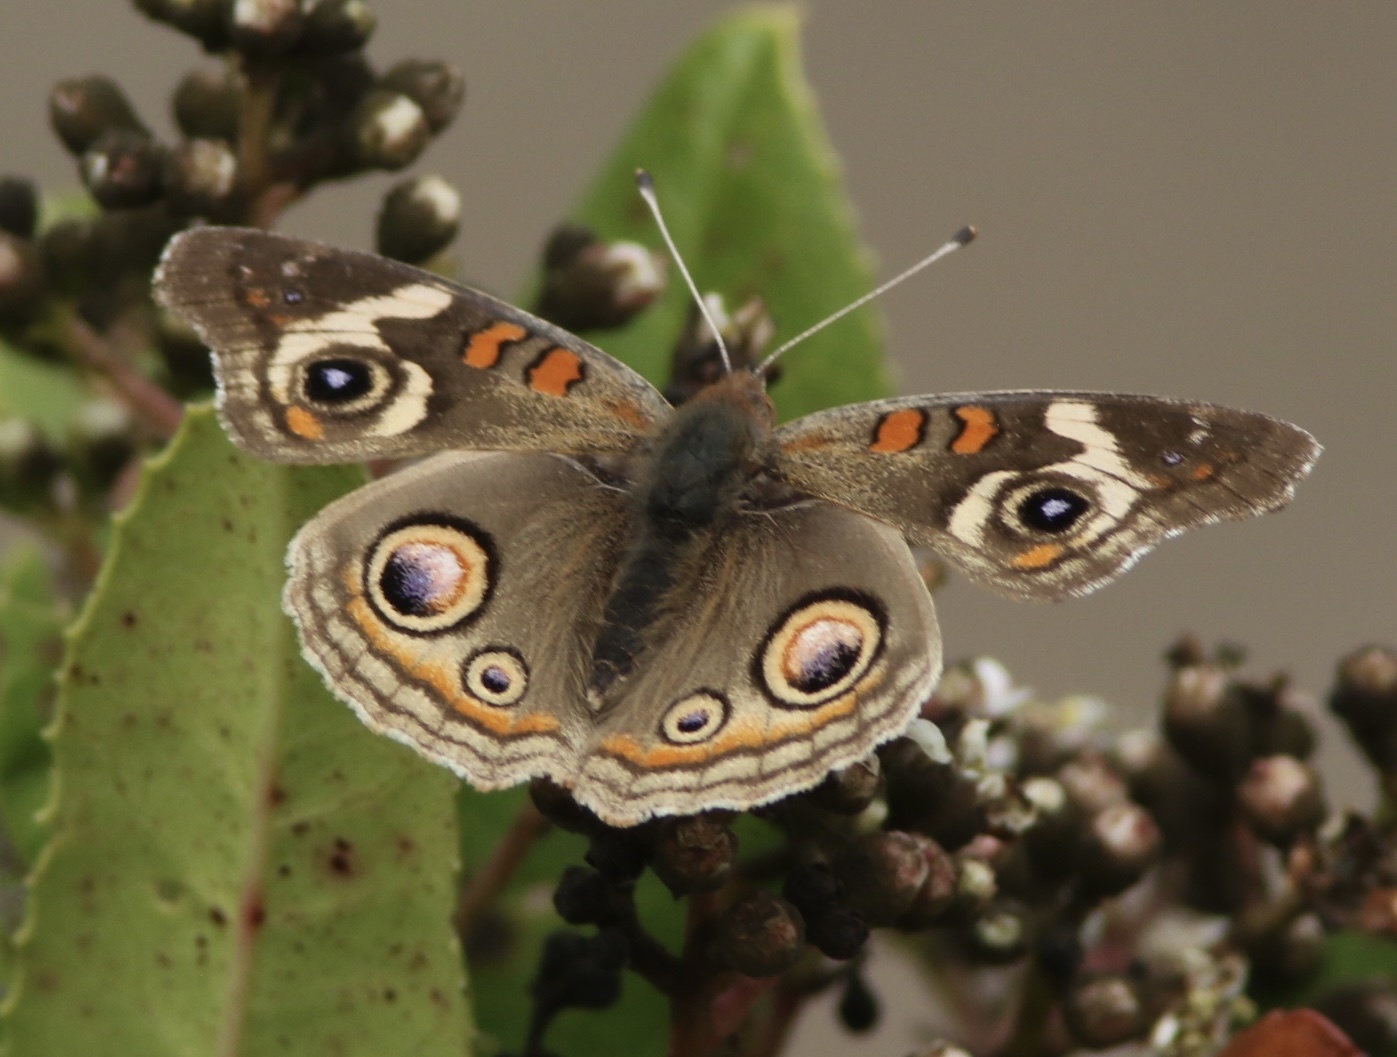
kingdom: Animalia
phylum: Arthropoda
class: Insecta
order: Lepidoptera
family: Nymphalidae
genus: Junonia
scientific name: Junonia grisea
